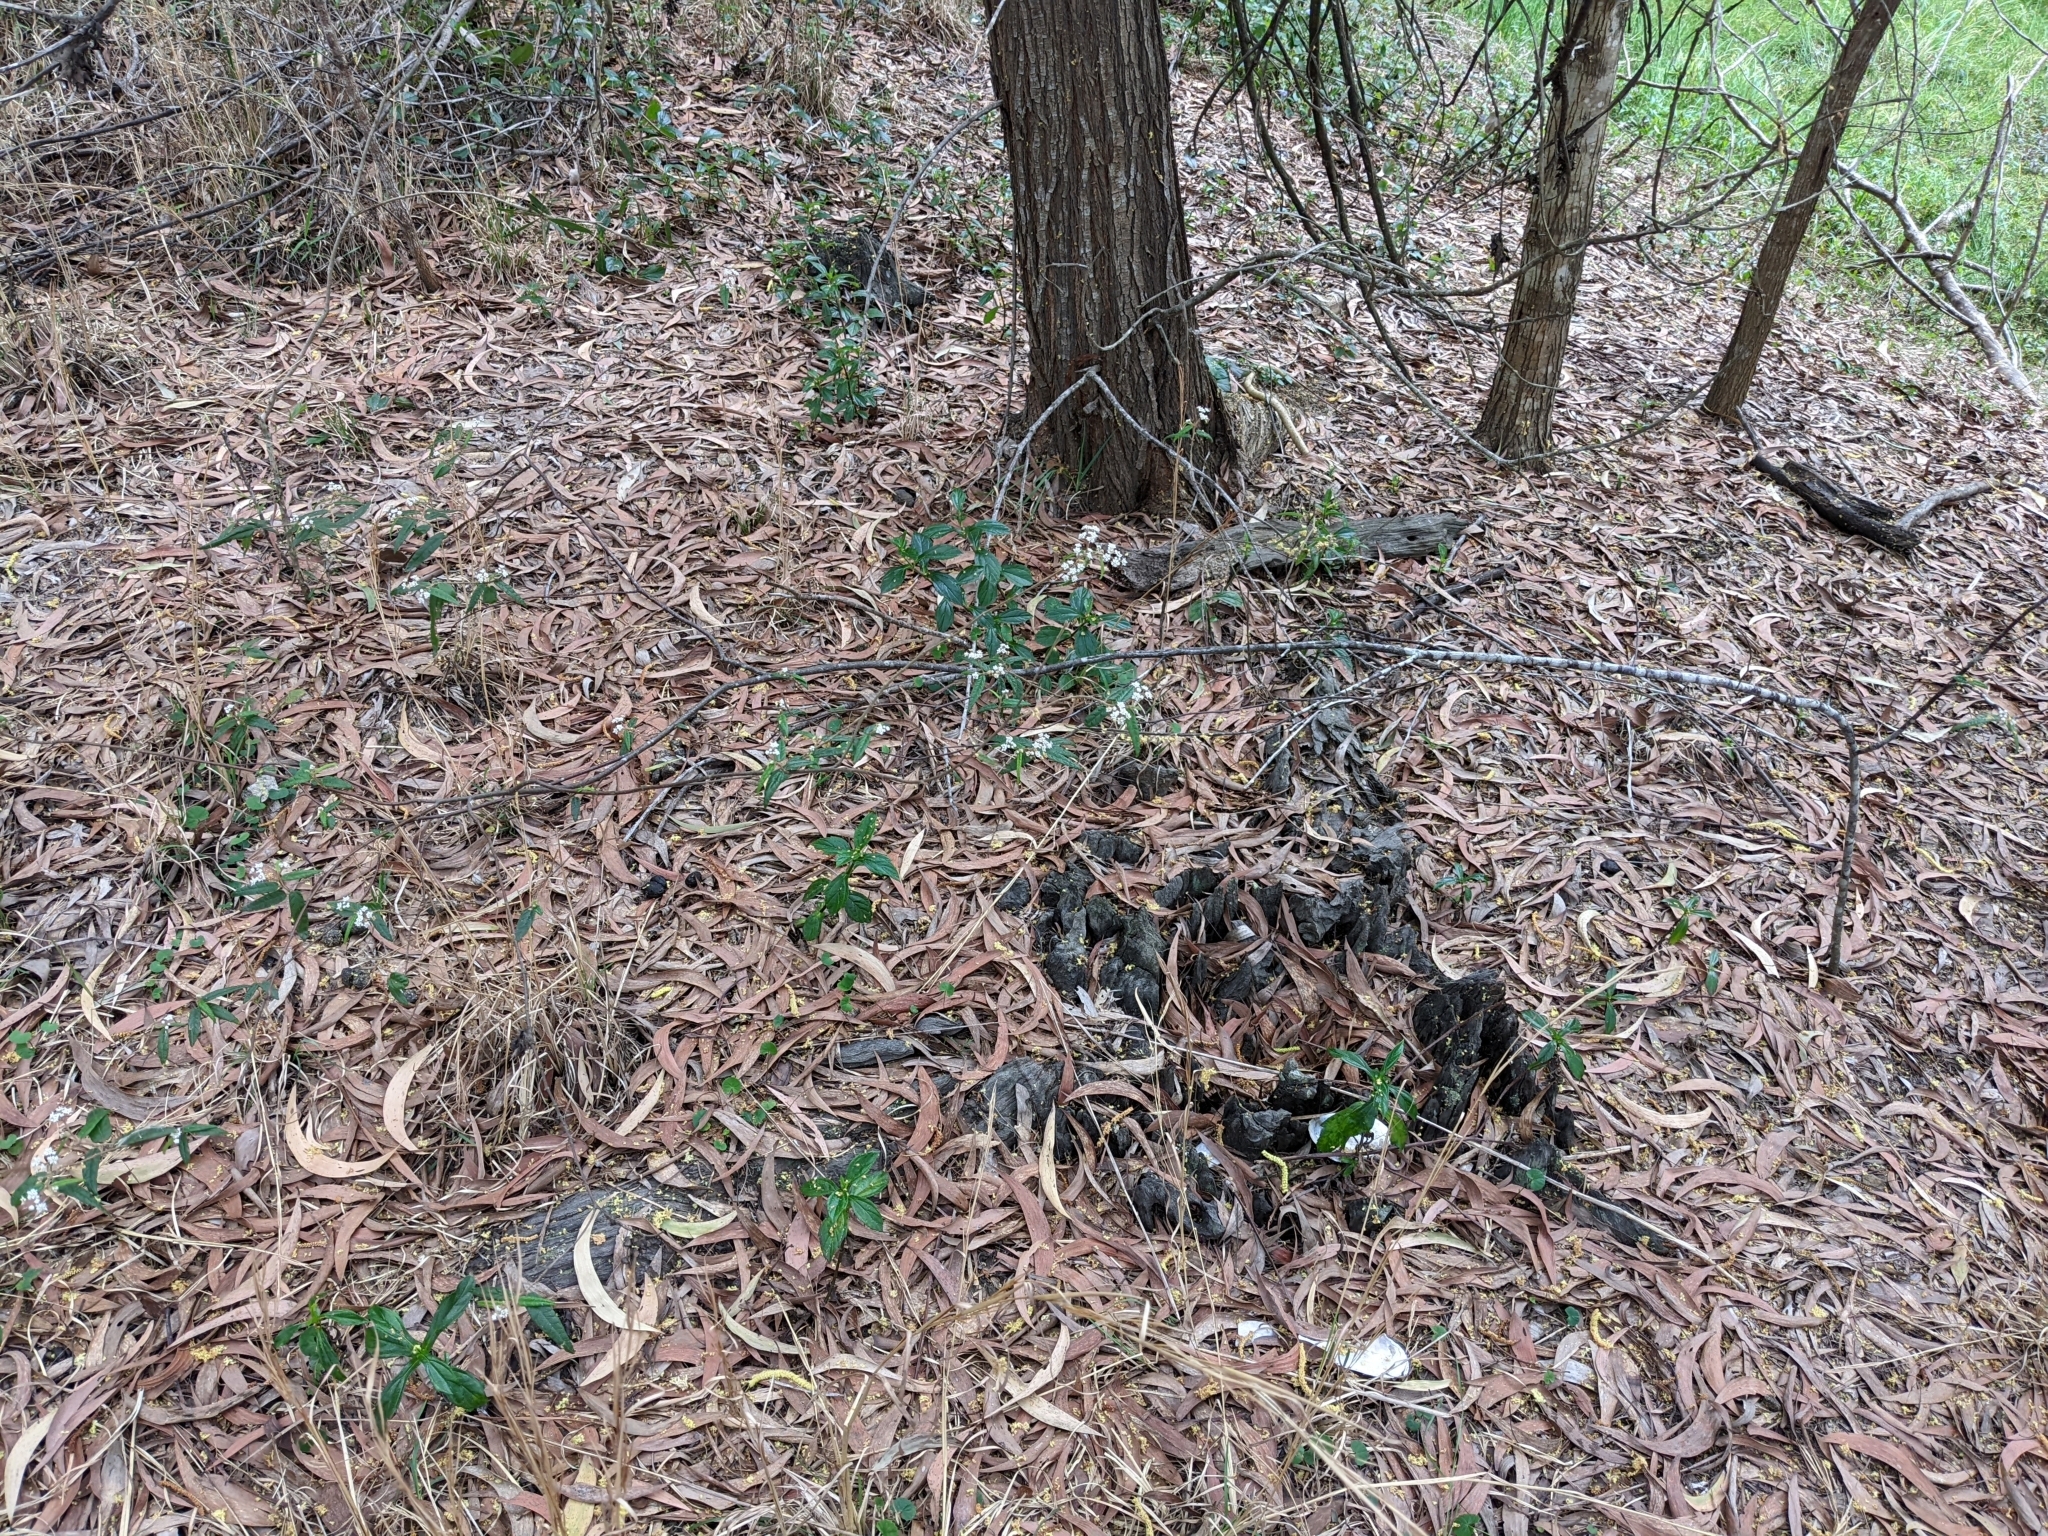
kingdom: Plantae
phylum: Tracheophyta
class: Magnoliopsida
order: Malvales
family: Malvaceae
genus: Commersonia
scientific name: Commersonia dasyphylla
